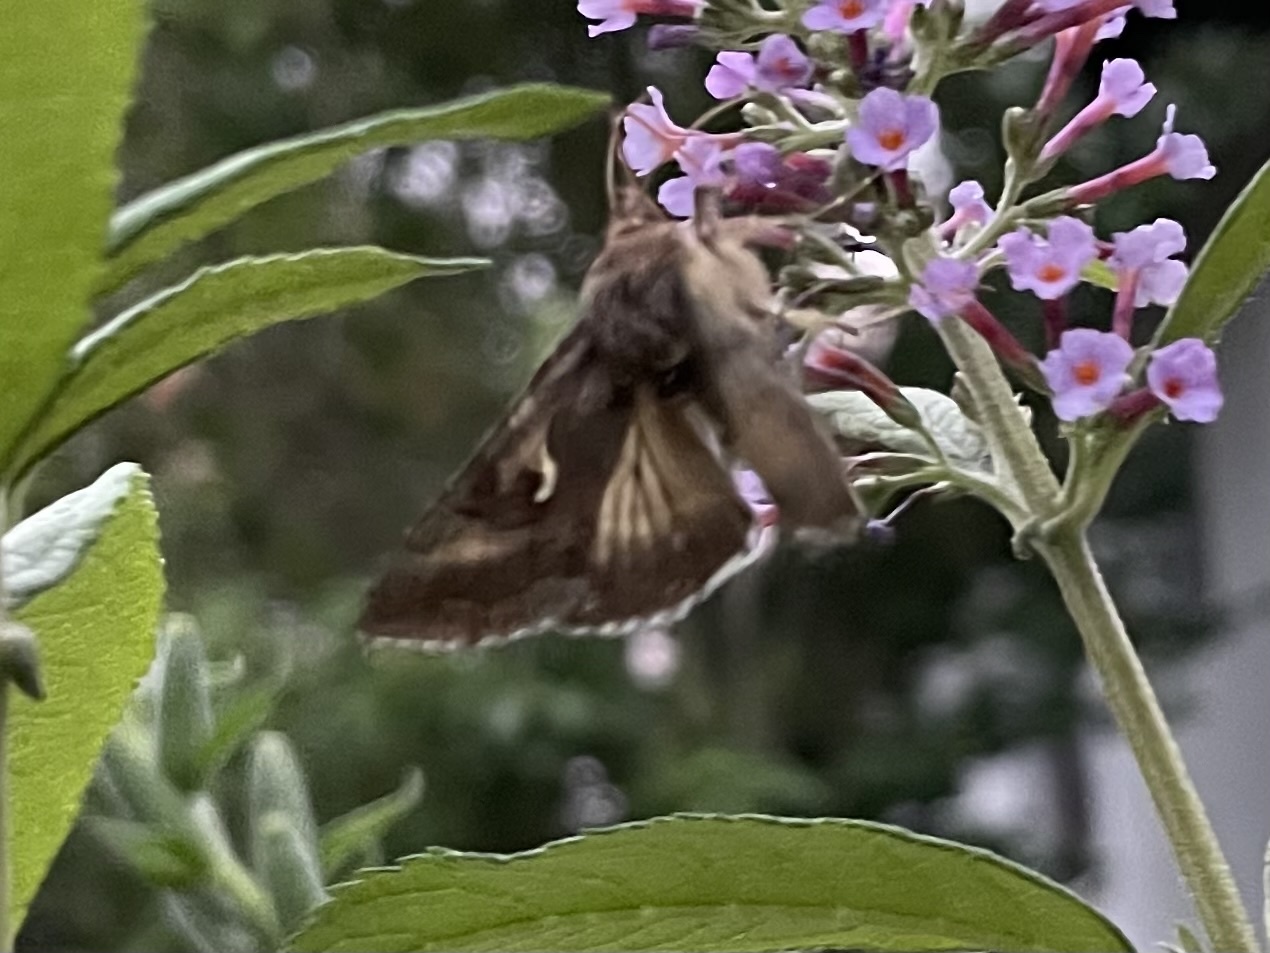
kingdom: Animalia
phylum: Arthropoda
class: Insecta
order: Lepidoptera
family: Noctuidae
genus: Autographa
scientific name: Autographa gamma
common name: Silver y
